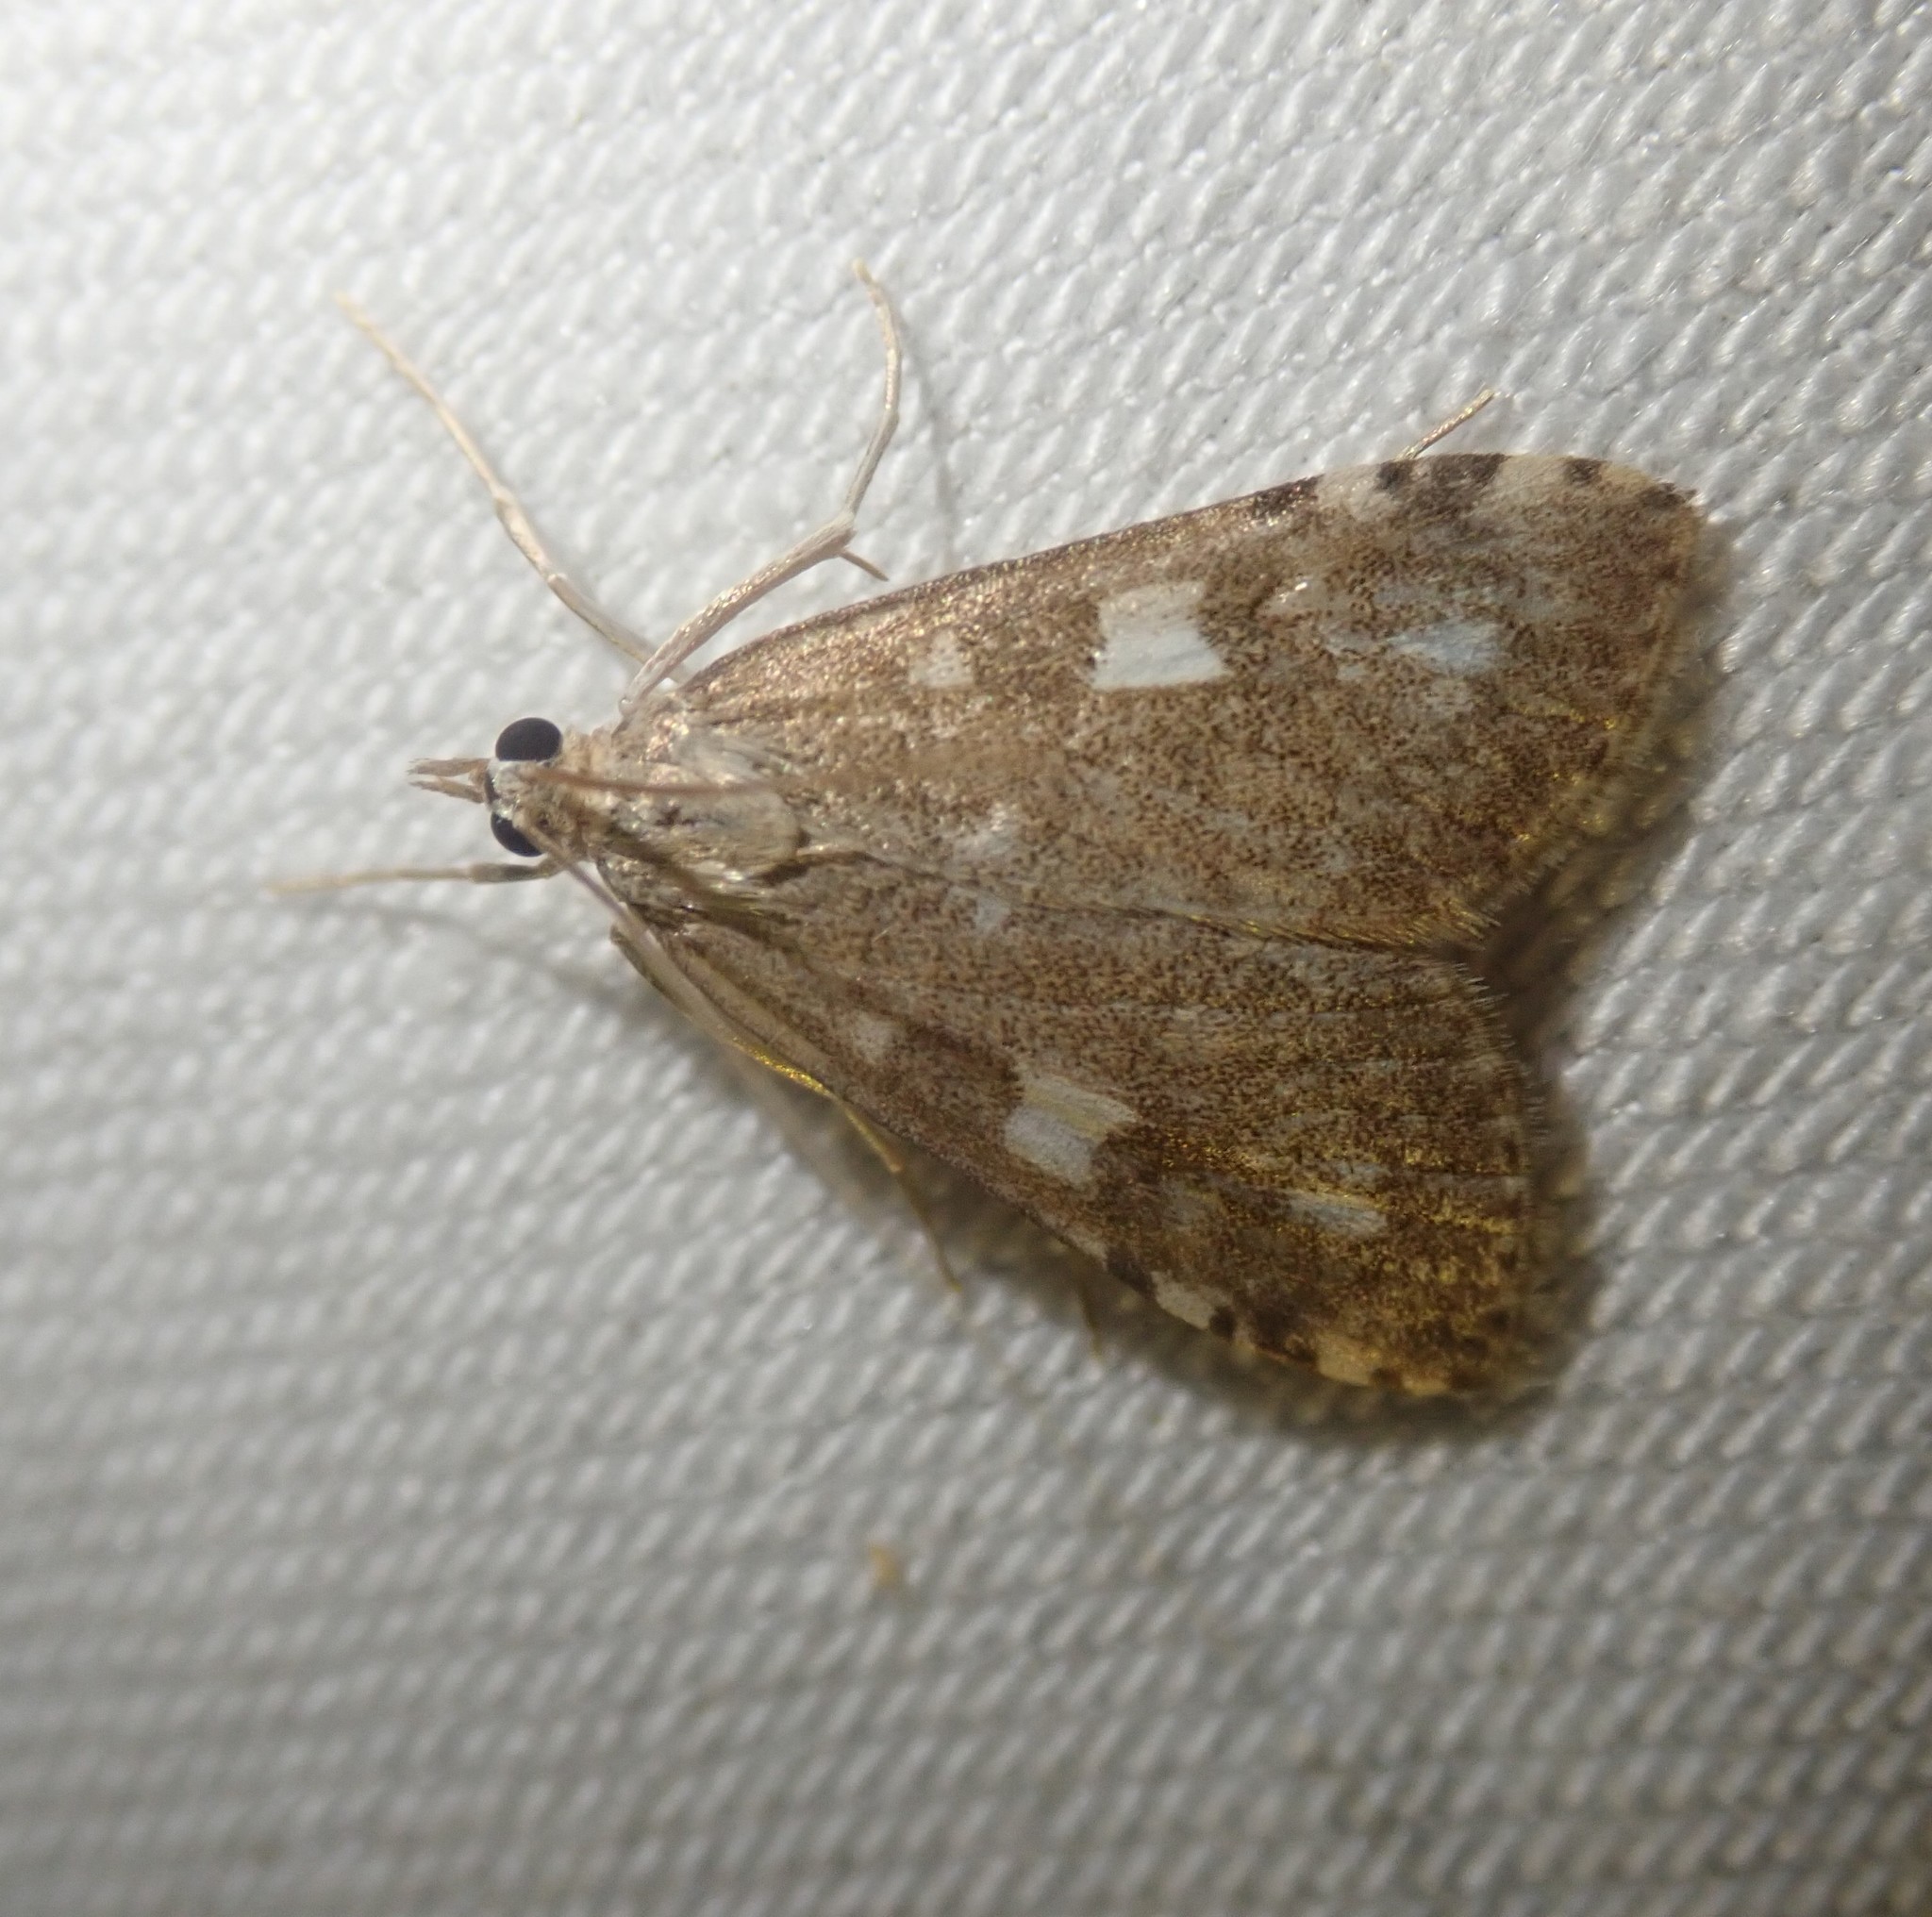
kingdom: Animalia
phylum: Arthropoda
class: Insecta
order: Lepidoptera
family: Crambidae
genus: Udea
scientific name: Udea olivalis
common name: Olive pearl
